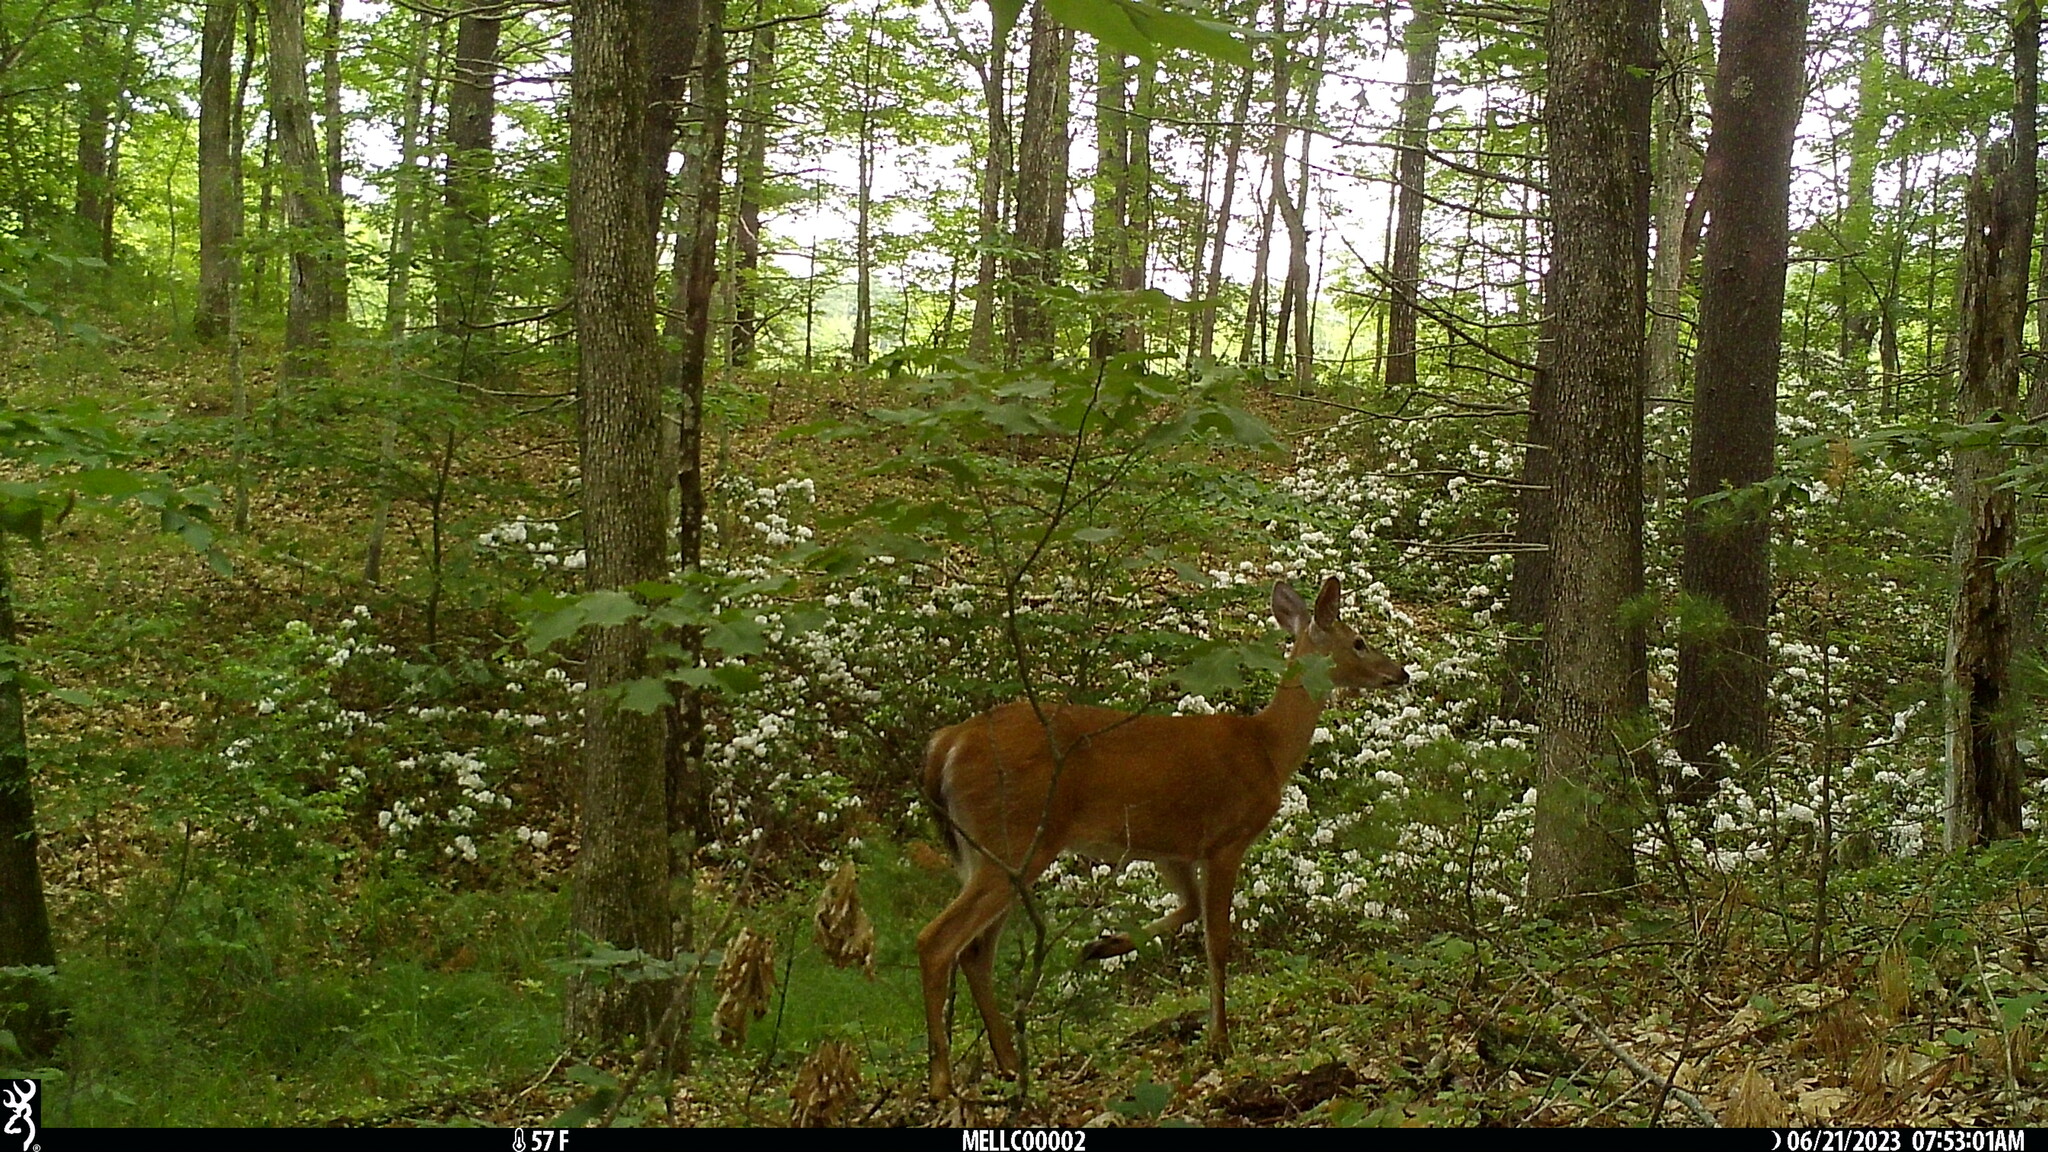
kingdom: Animalia
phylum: Chordata
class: Mammalia
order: Artiodactyla
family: Cervidae
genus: Odocoileus
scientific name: Odocoileus virginianus
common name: White-tailed deer
